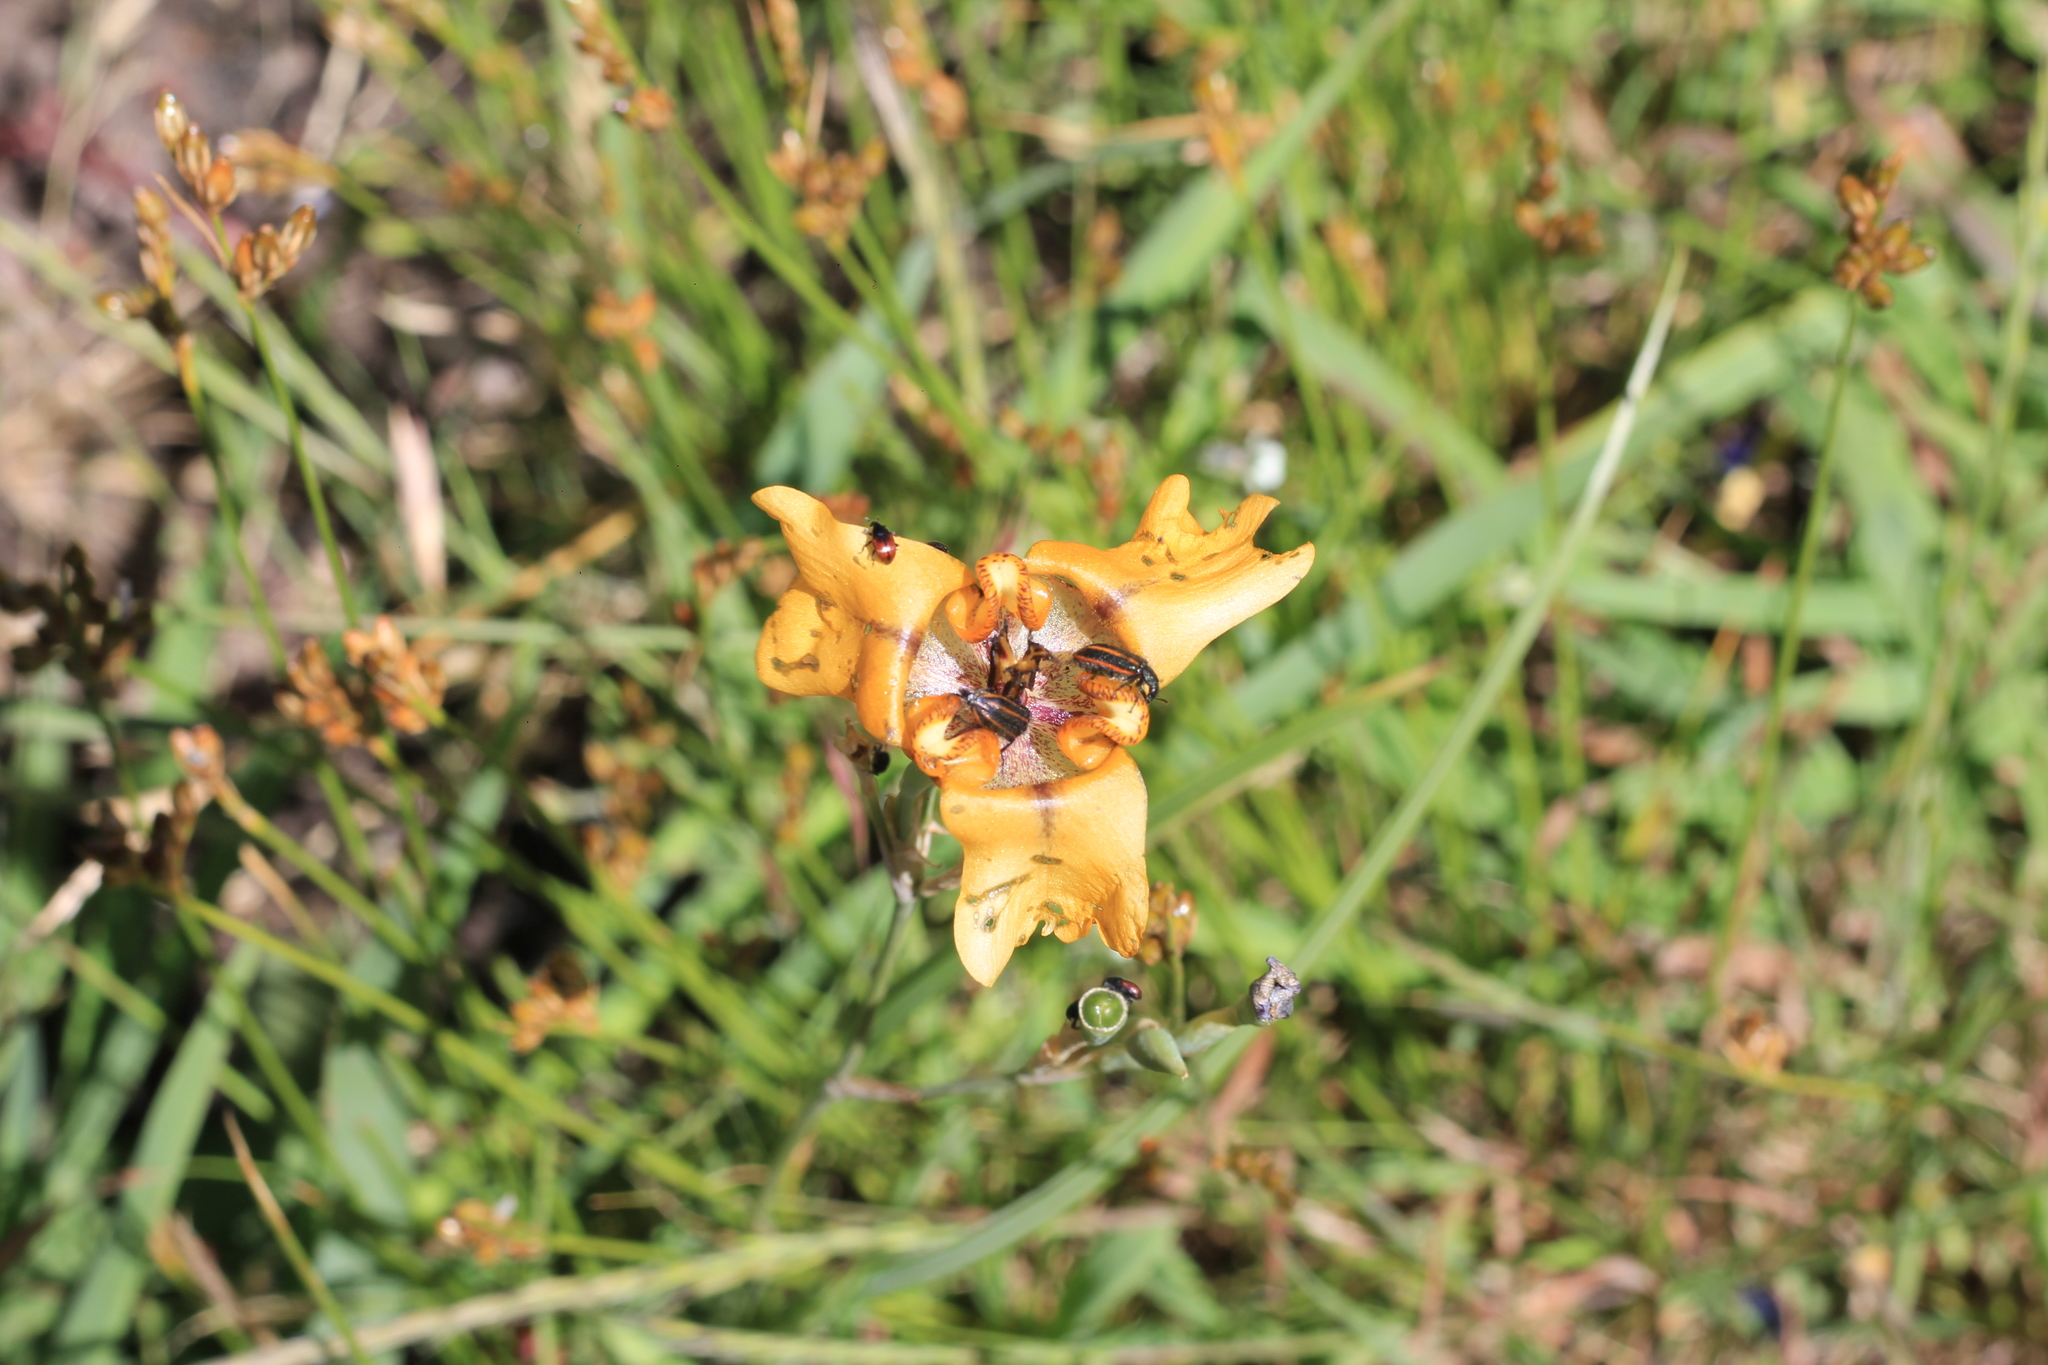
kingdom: Plantae
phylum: Tracheophyta
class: Liliopsida
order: Asparagales
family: Iridaceae
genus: Cypella
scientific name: Cypella herbertii
